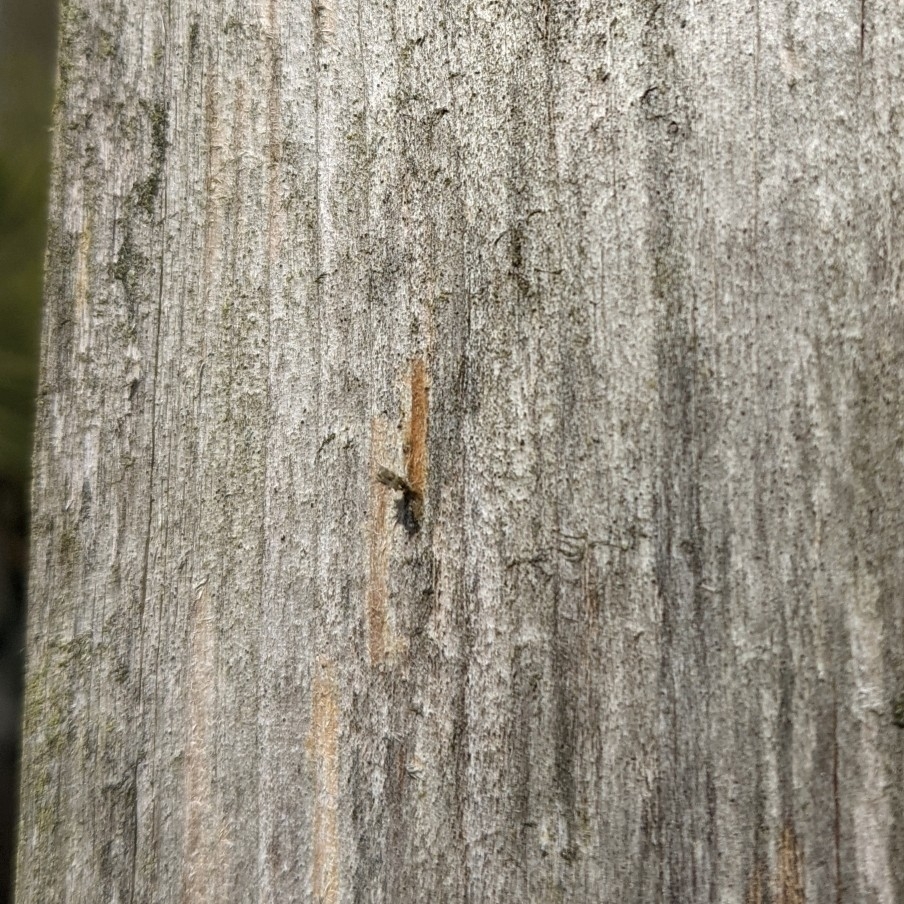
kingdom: Animalia
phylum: Arthropoda
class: Insecta
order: Hymenoptera
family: Vespidae
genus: Vespula
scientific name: Vespula germanica
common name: German wasp
